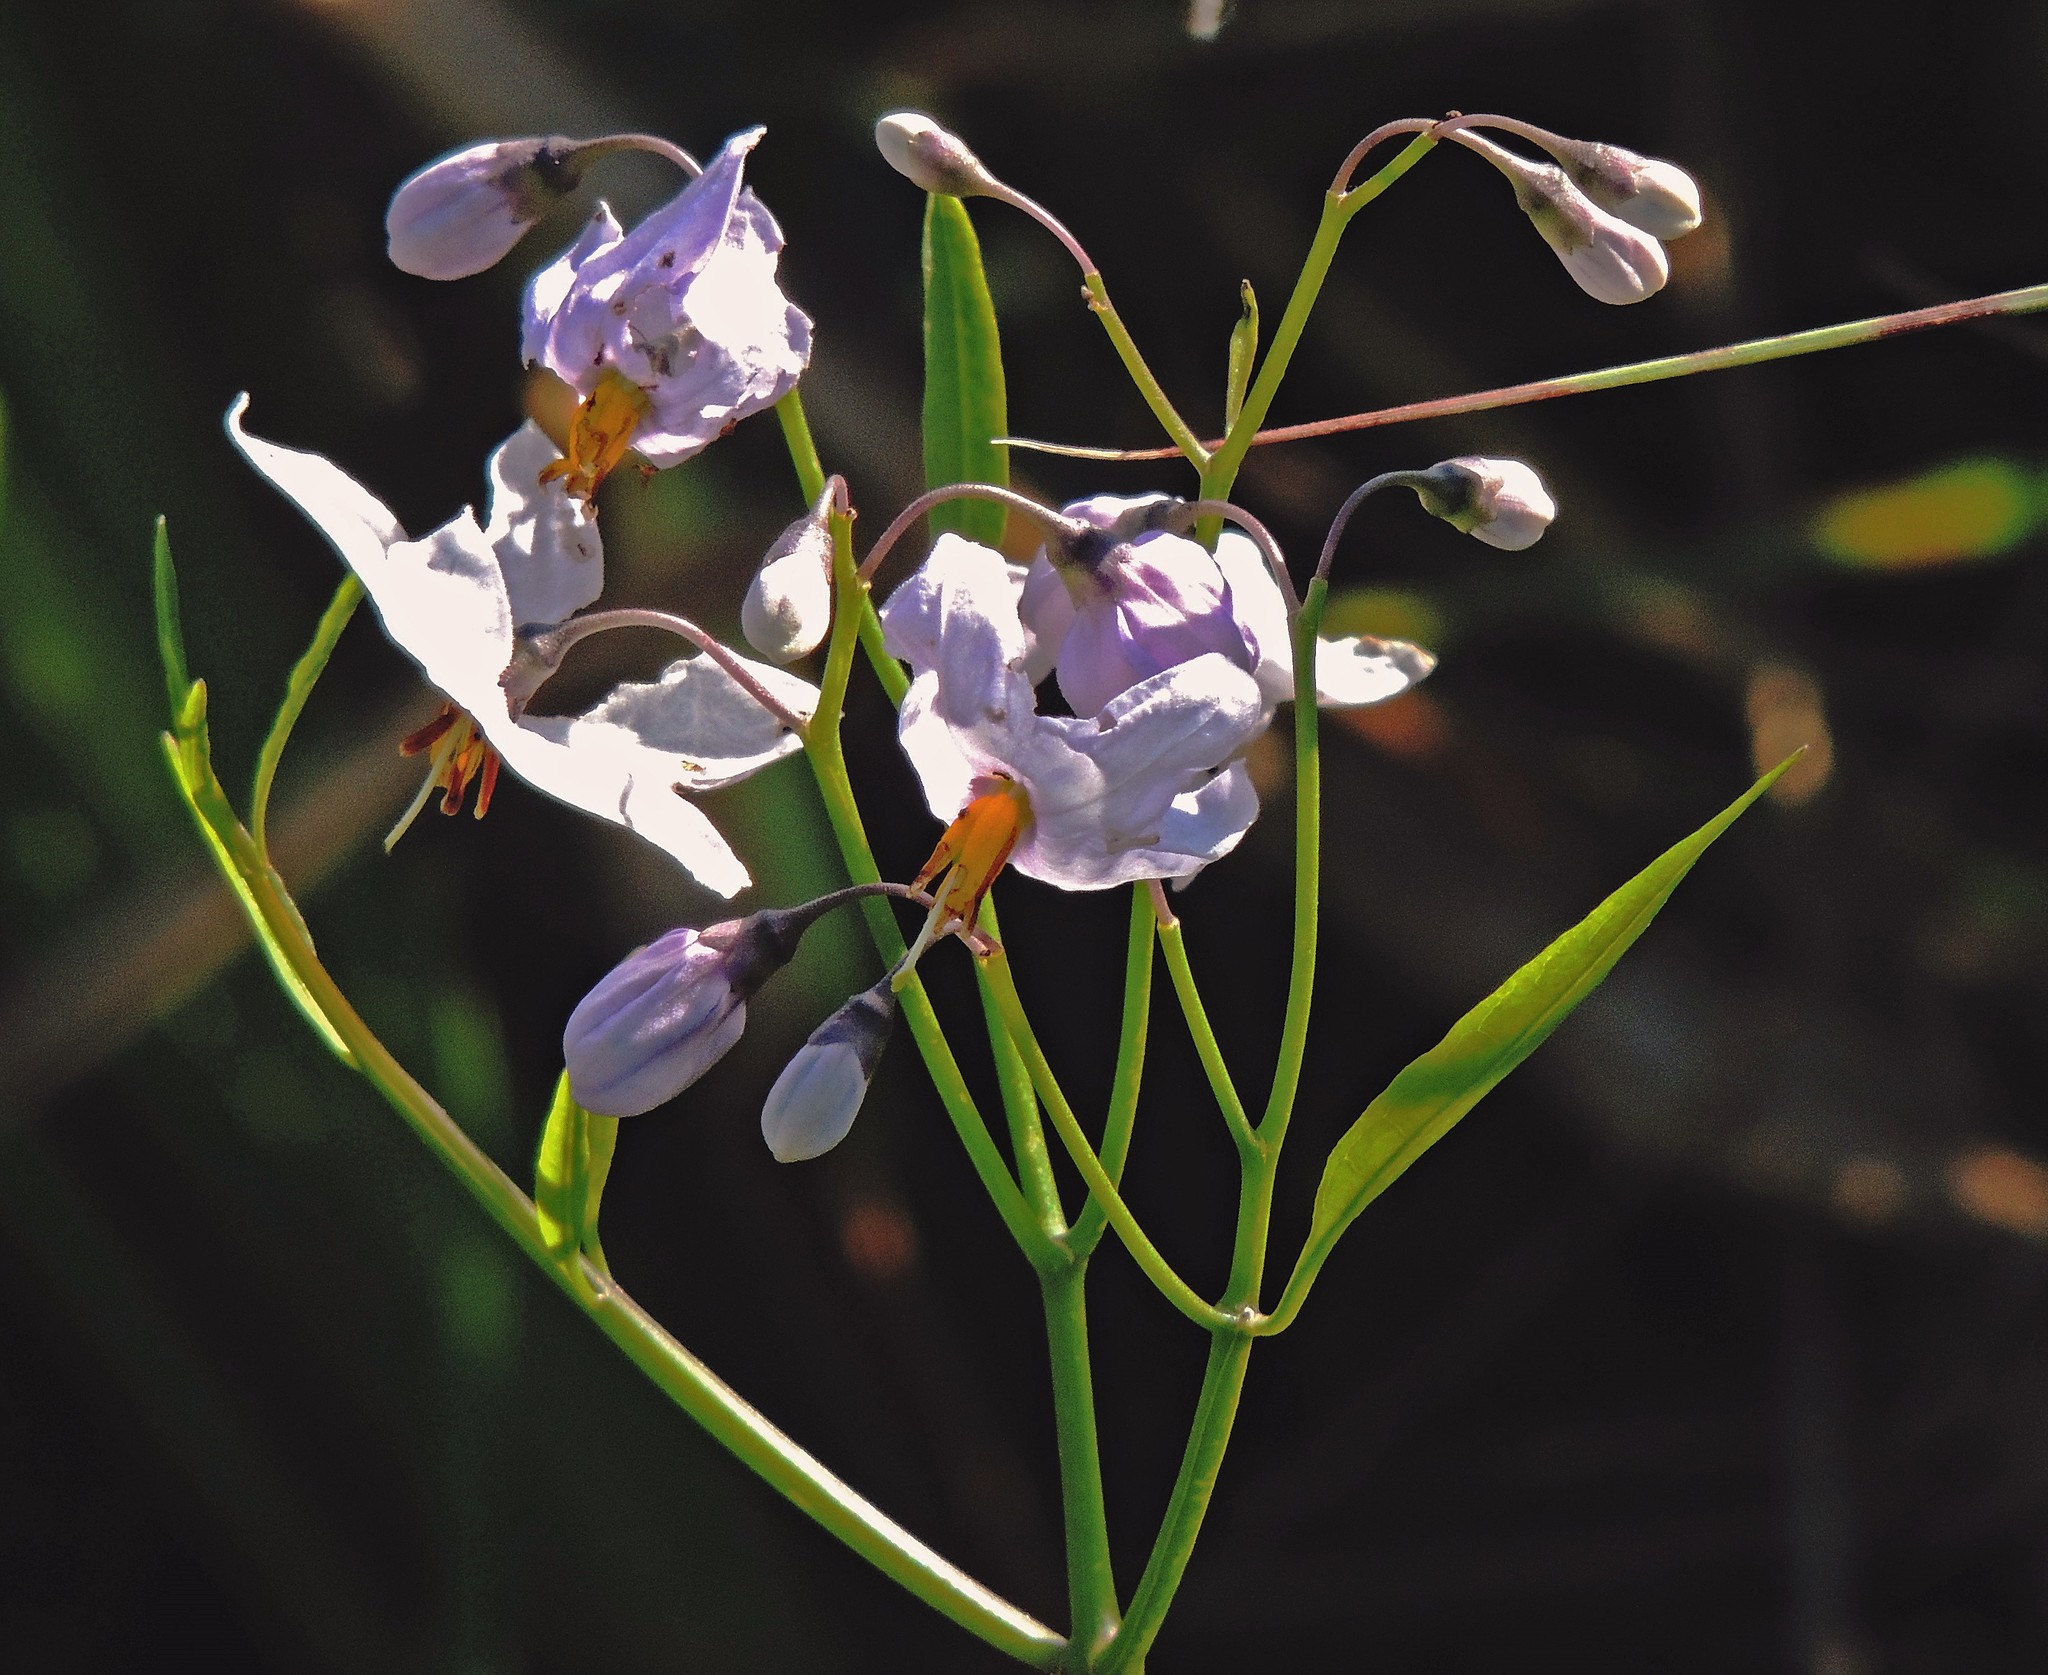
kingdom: Plantae
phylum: Tracheophyta
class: Magnoliopsida
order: Solanales
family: Solanaceae
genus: Solanum
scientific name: Solanum glaucophyllum
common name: Waxyleaf nightshade
